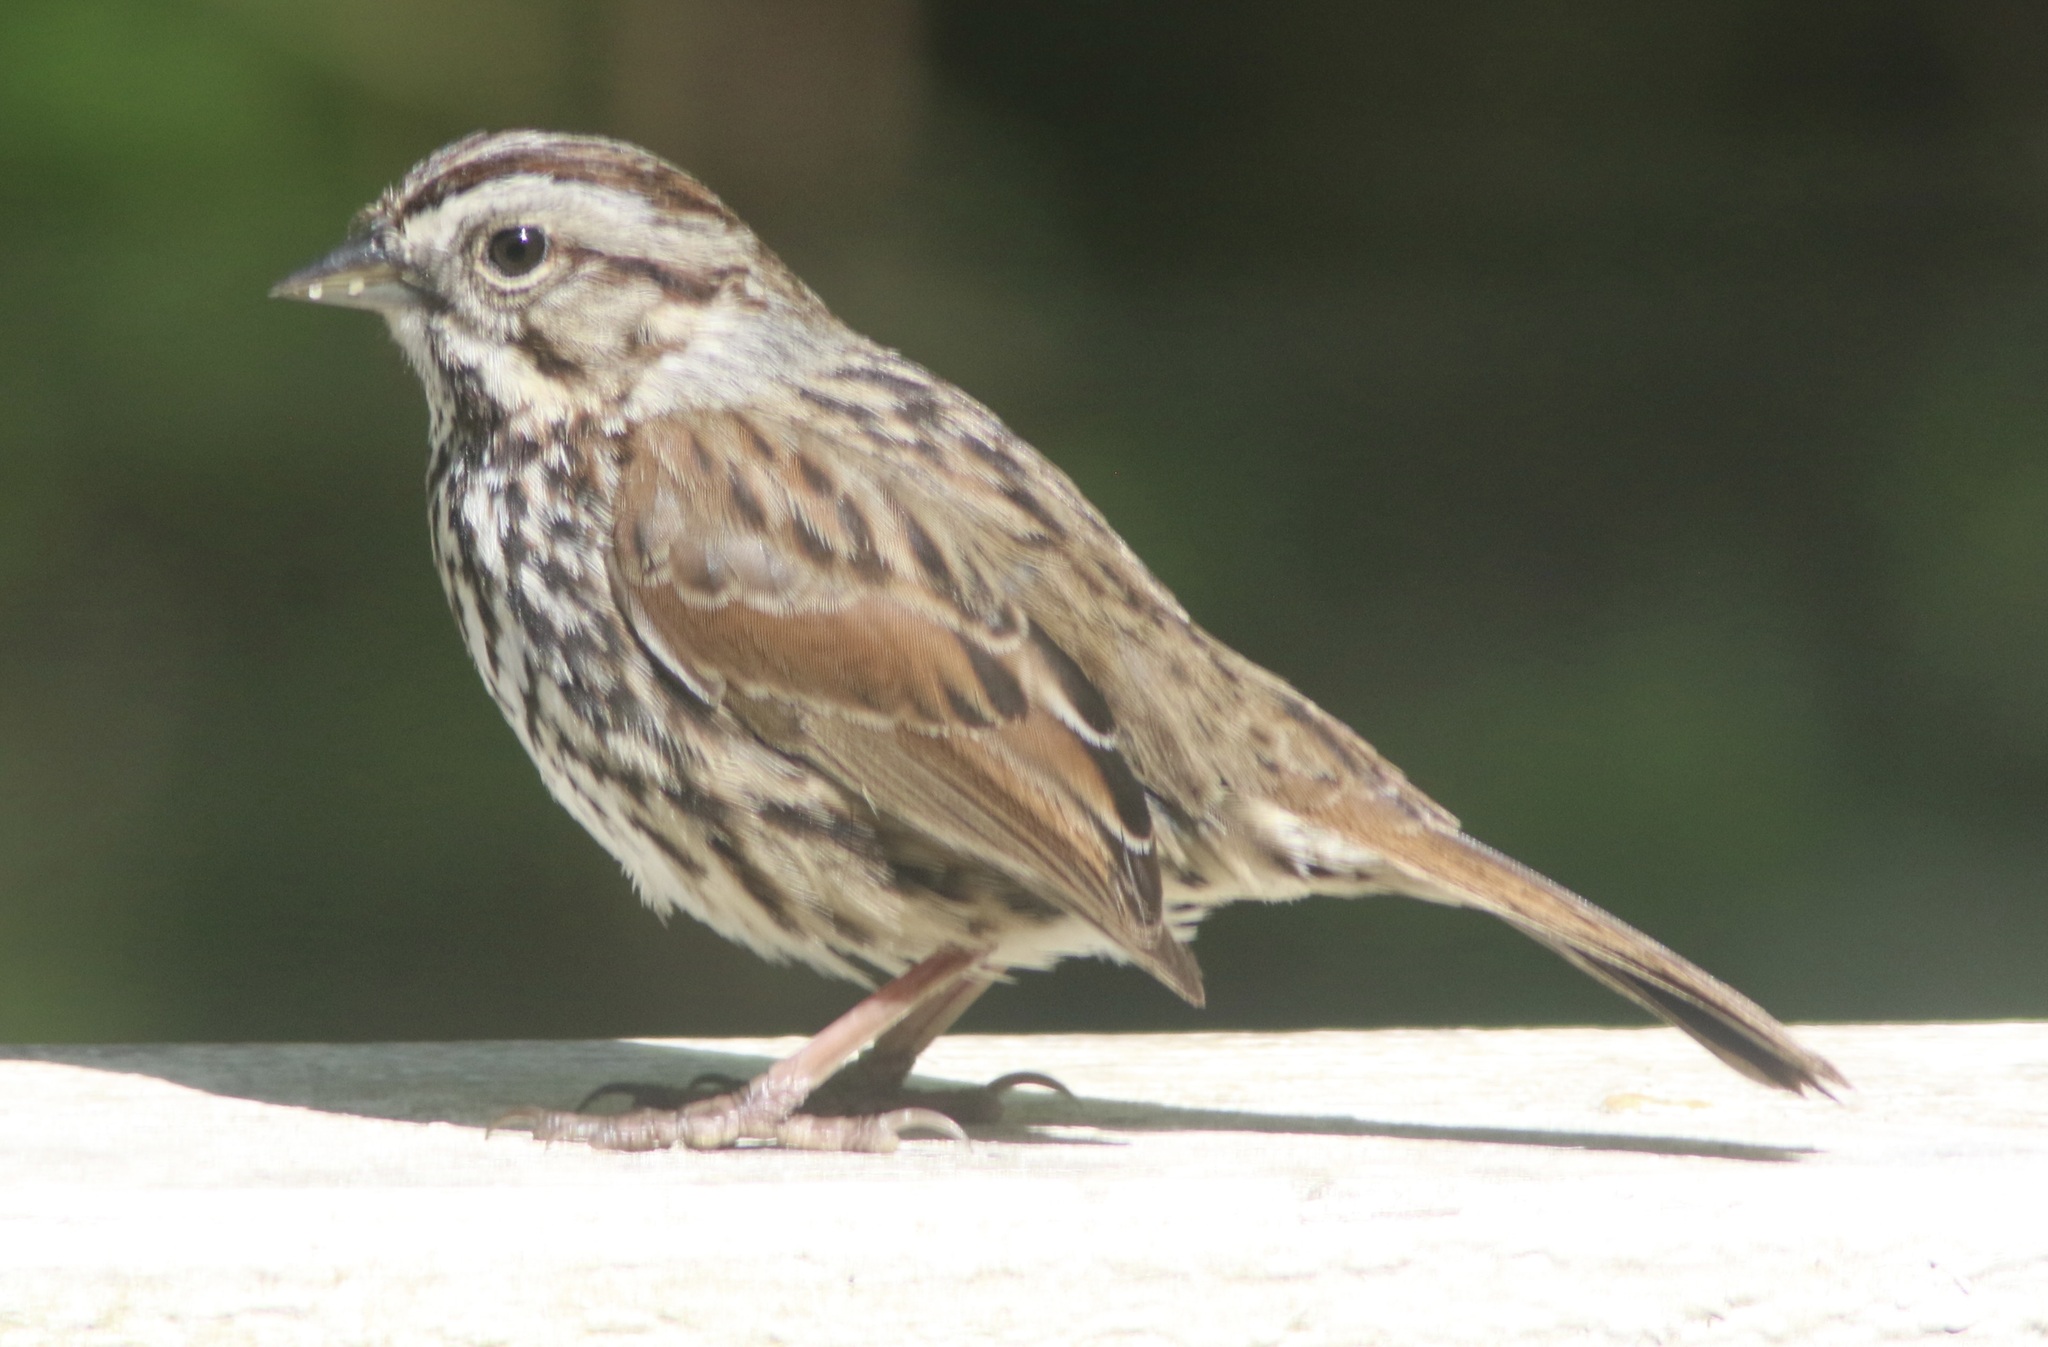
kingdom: Animalia
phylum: Chordata
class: Aves
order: Passeriformes
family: Passerellidae
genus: Melospiza
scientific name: Melospiza melodia
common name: Song sparrow
